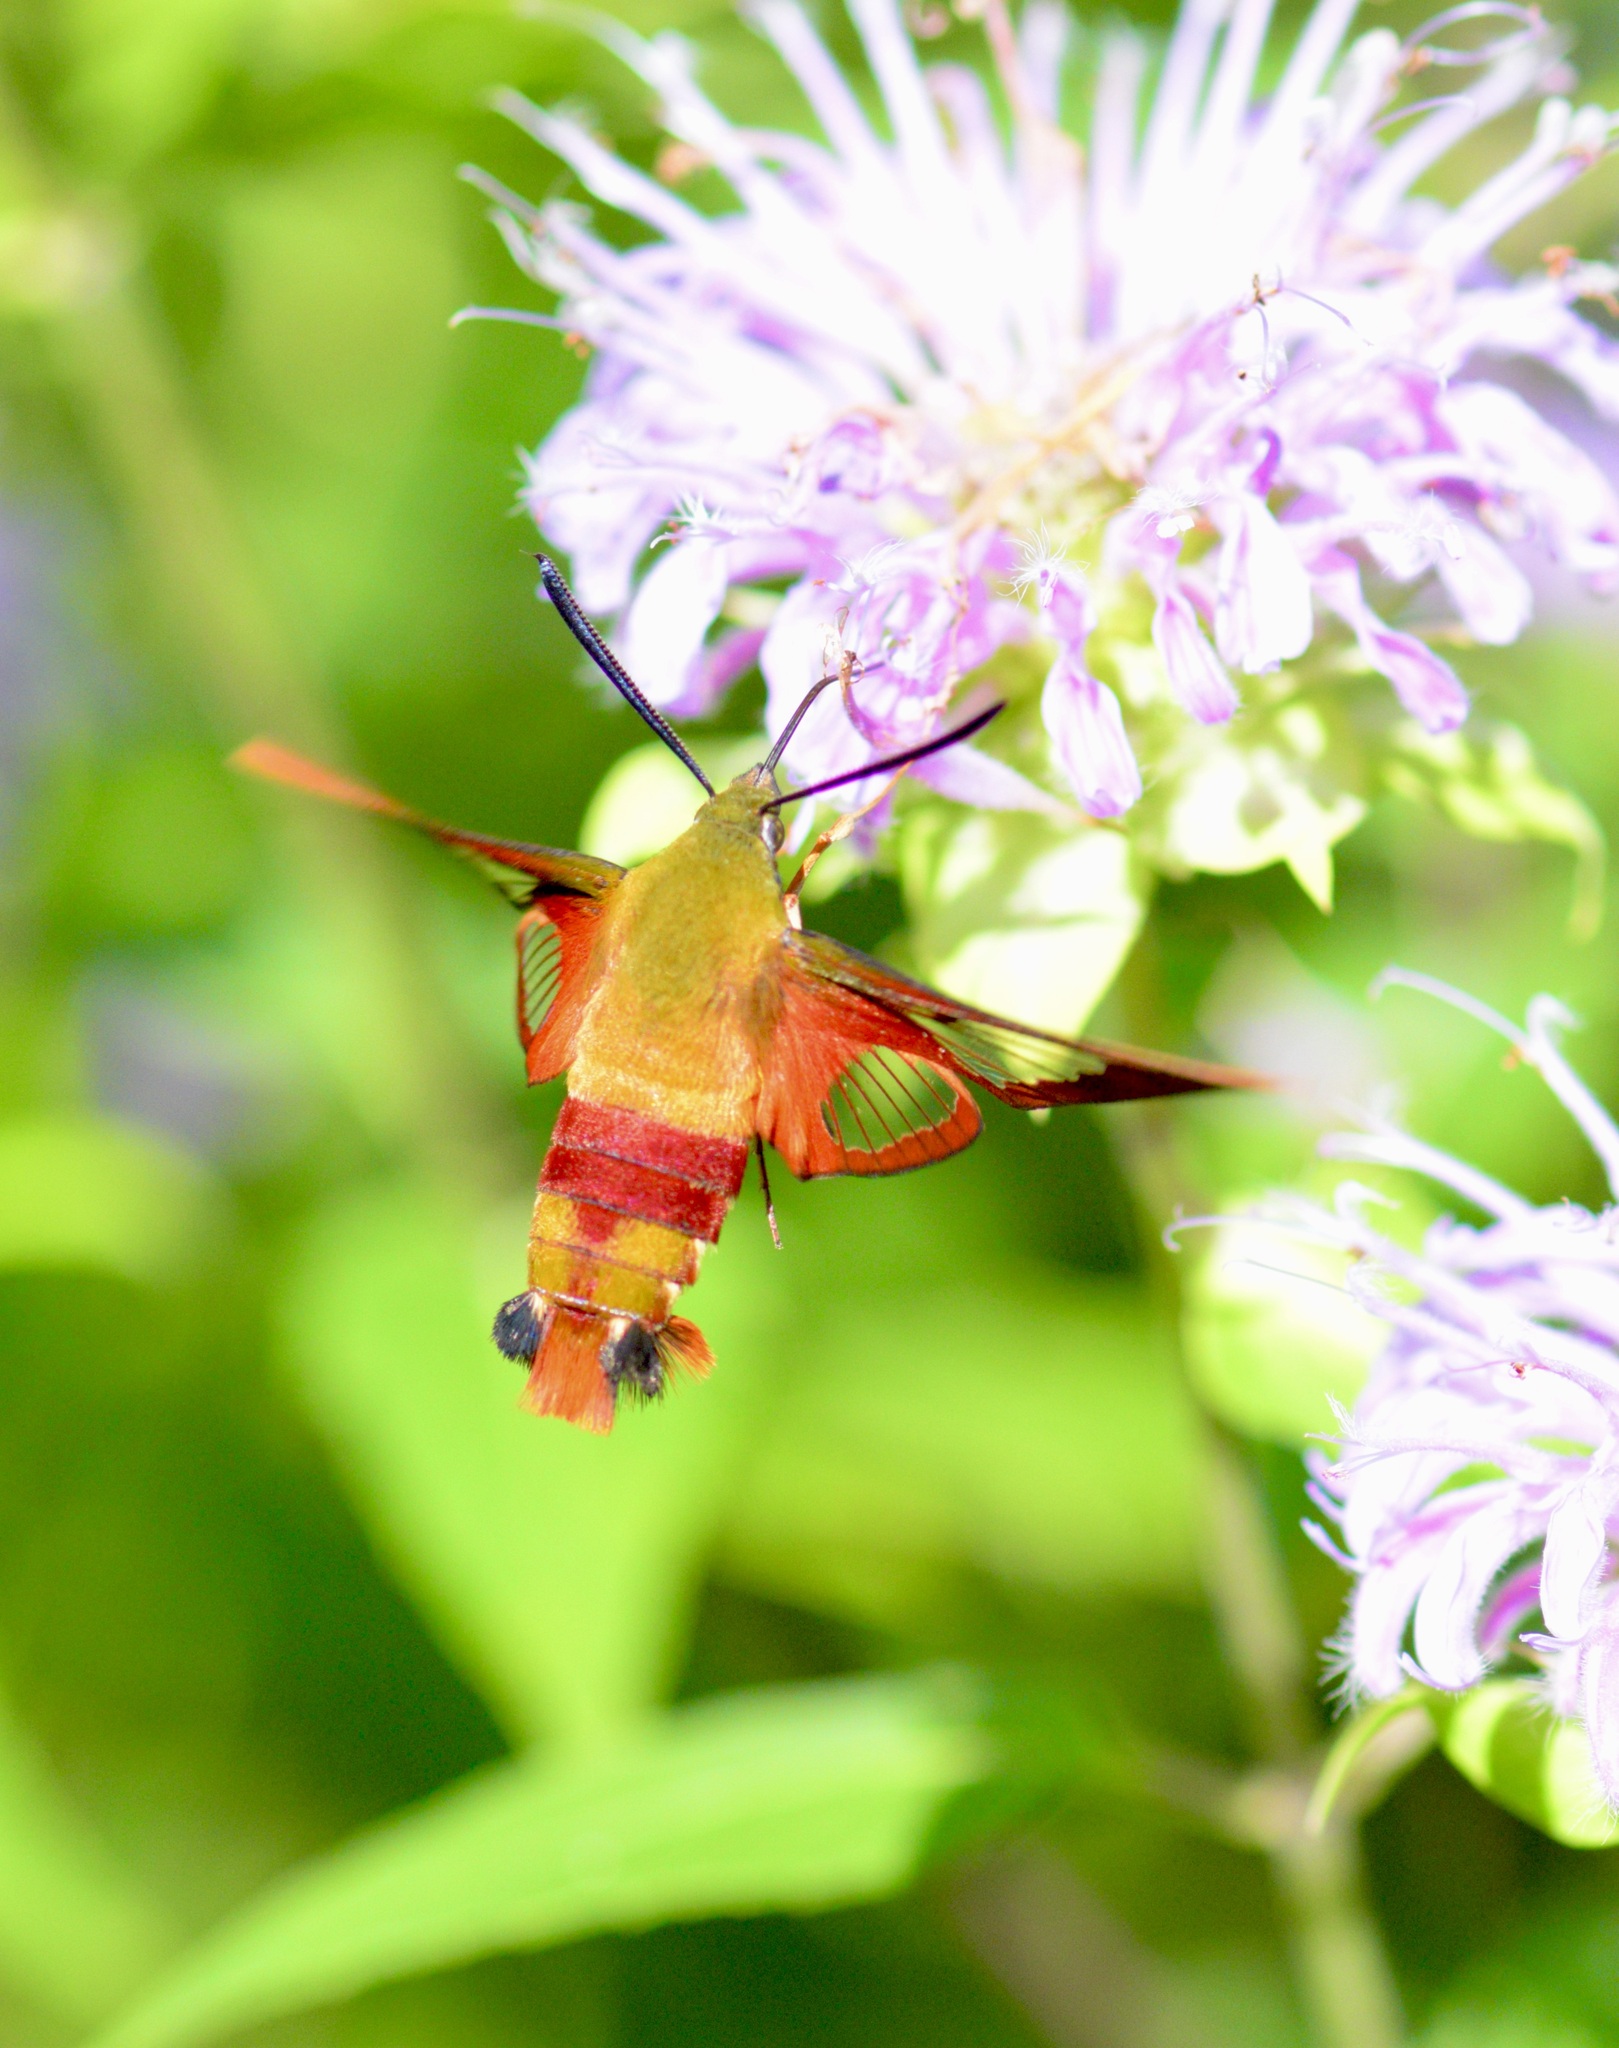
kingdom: Animalia
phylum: Arthropoda
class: Insecta
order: Lepidoptera
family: Sphingidae
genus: Hemaris
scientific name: Hemaris thysbe
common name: Common clear-wing
